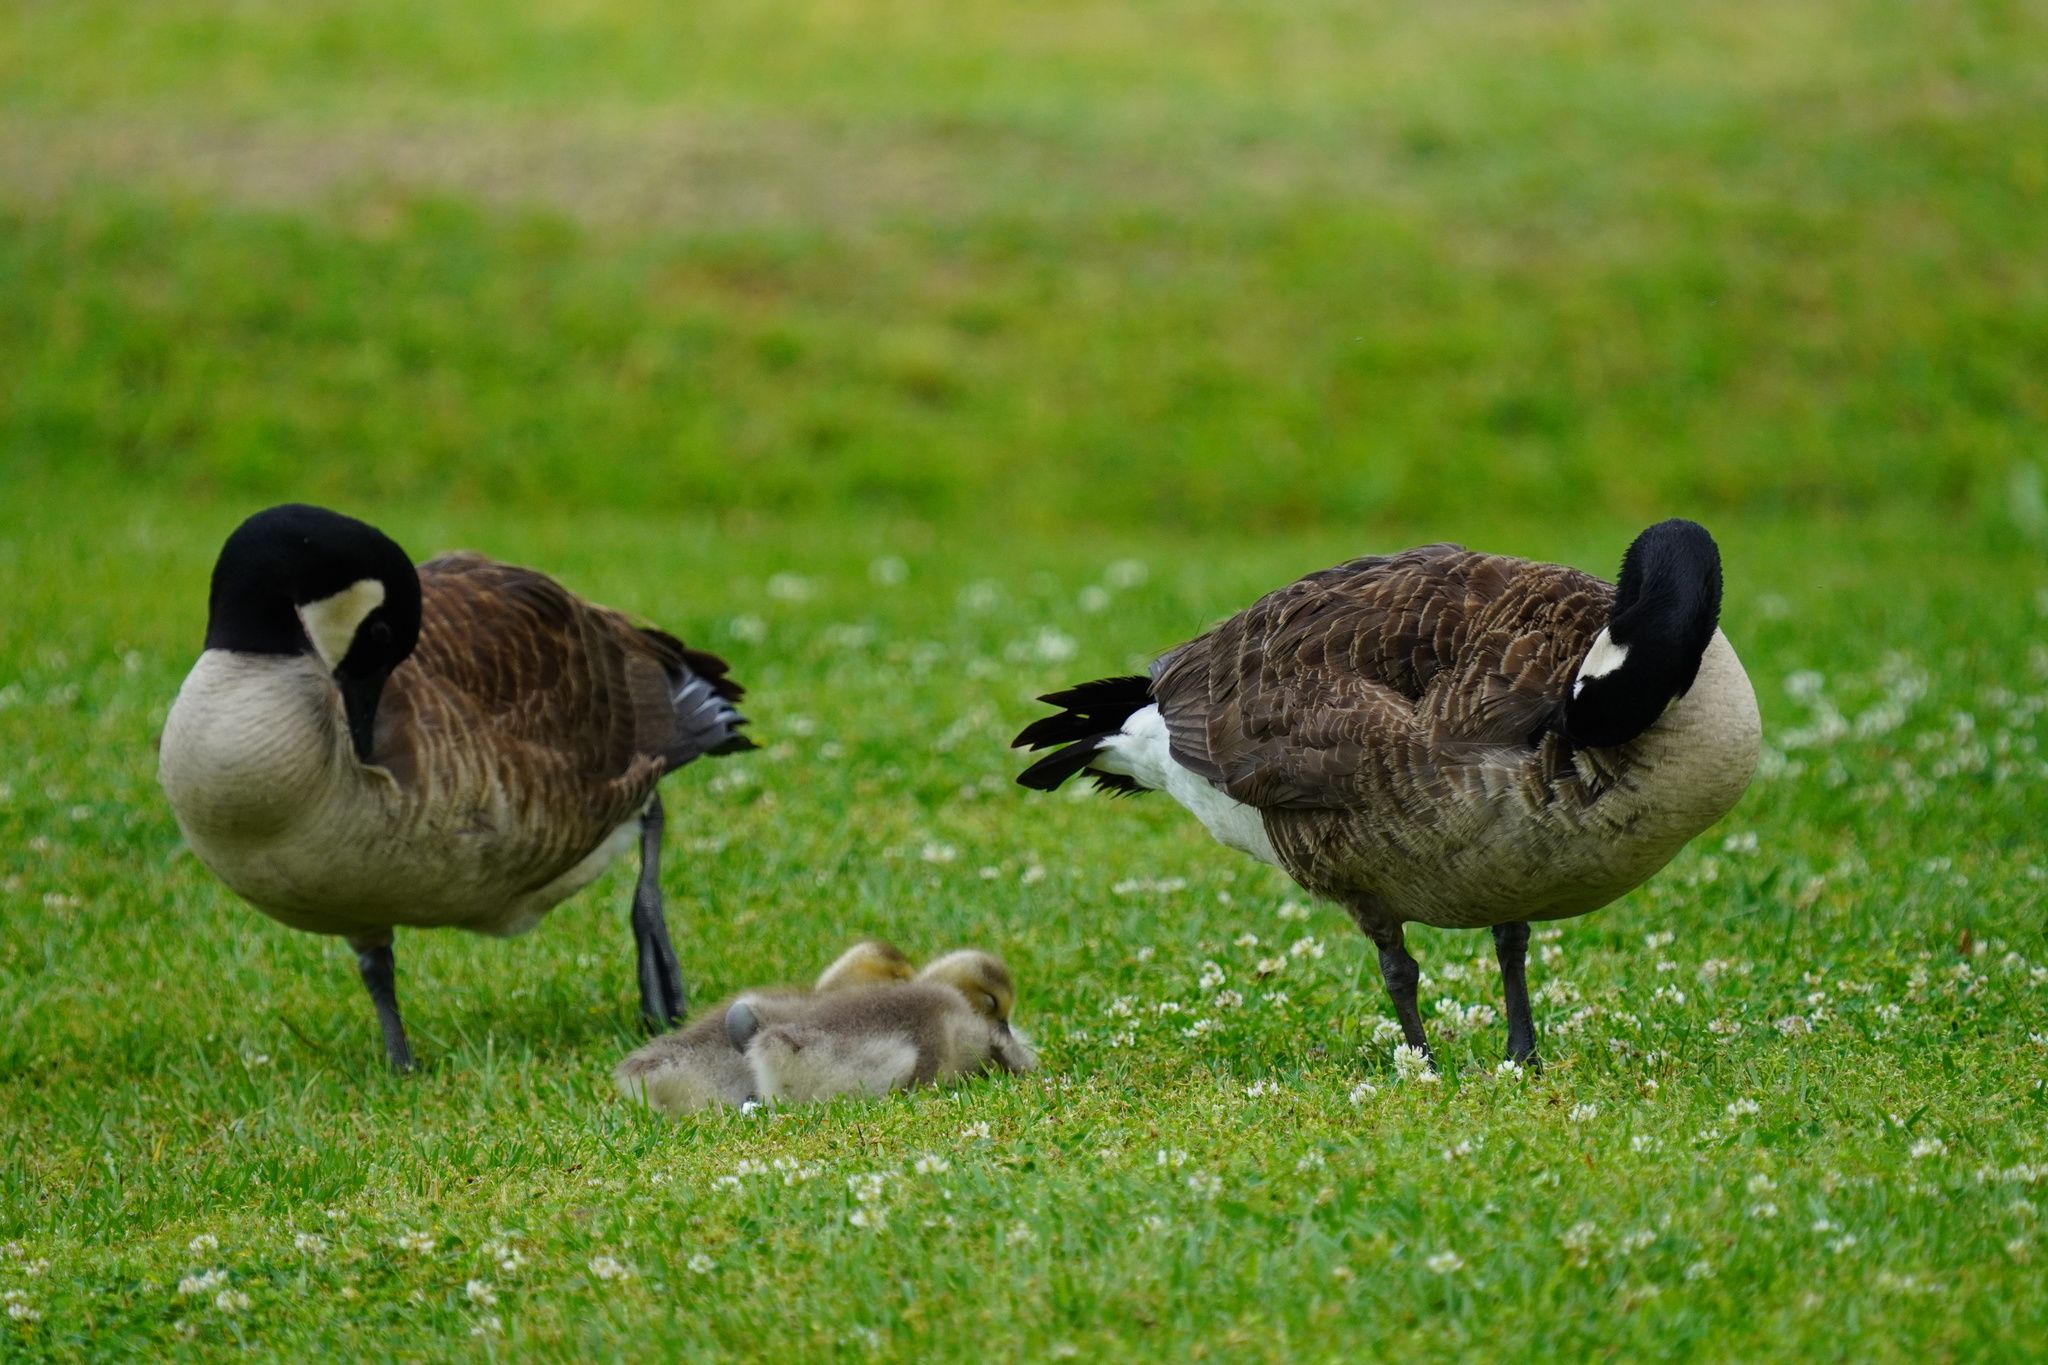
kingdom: Animalia
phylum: Chordata
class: Aves
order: Anseriformes
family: Anatidae
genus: Branta
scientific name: Branta canadensis
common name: Canada goose
